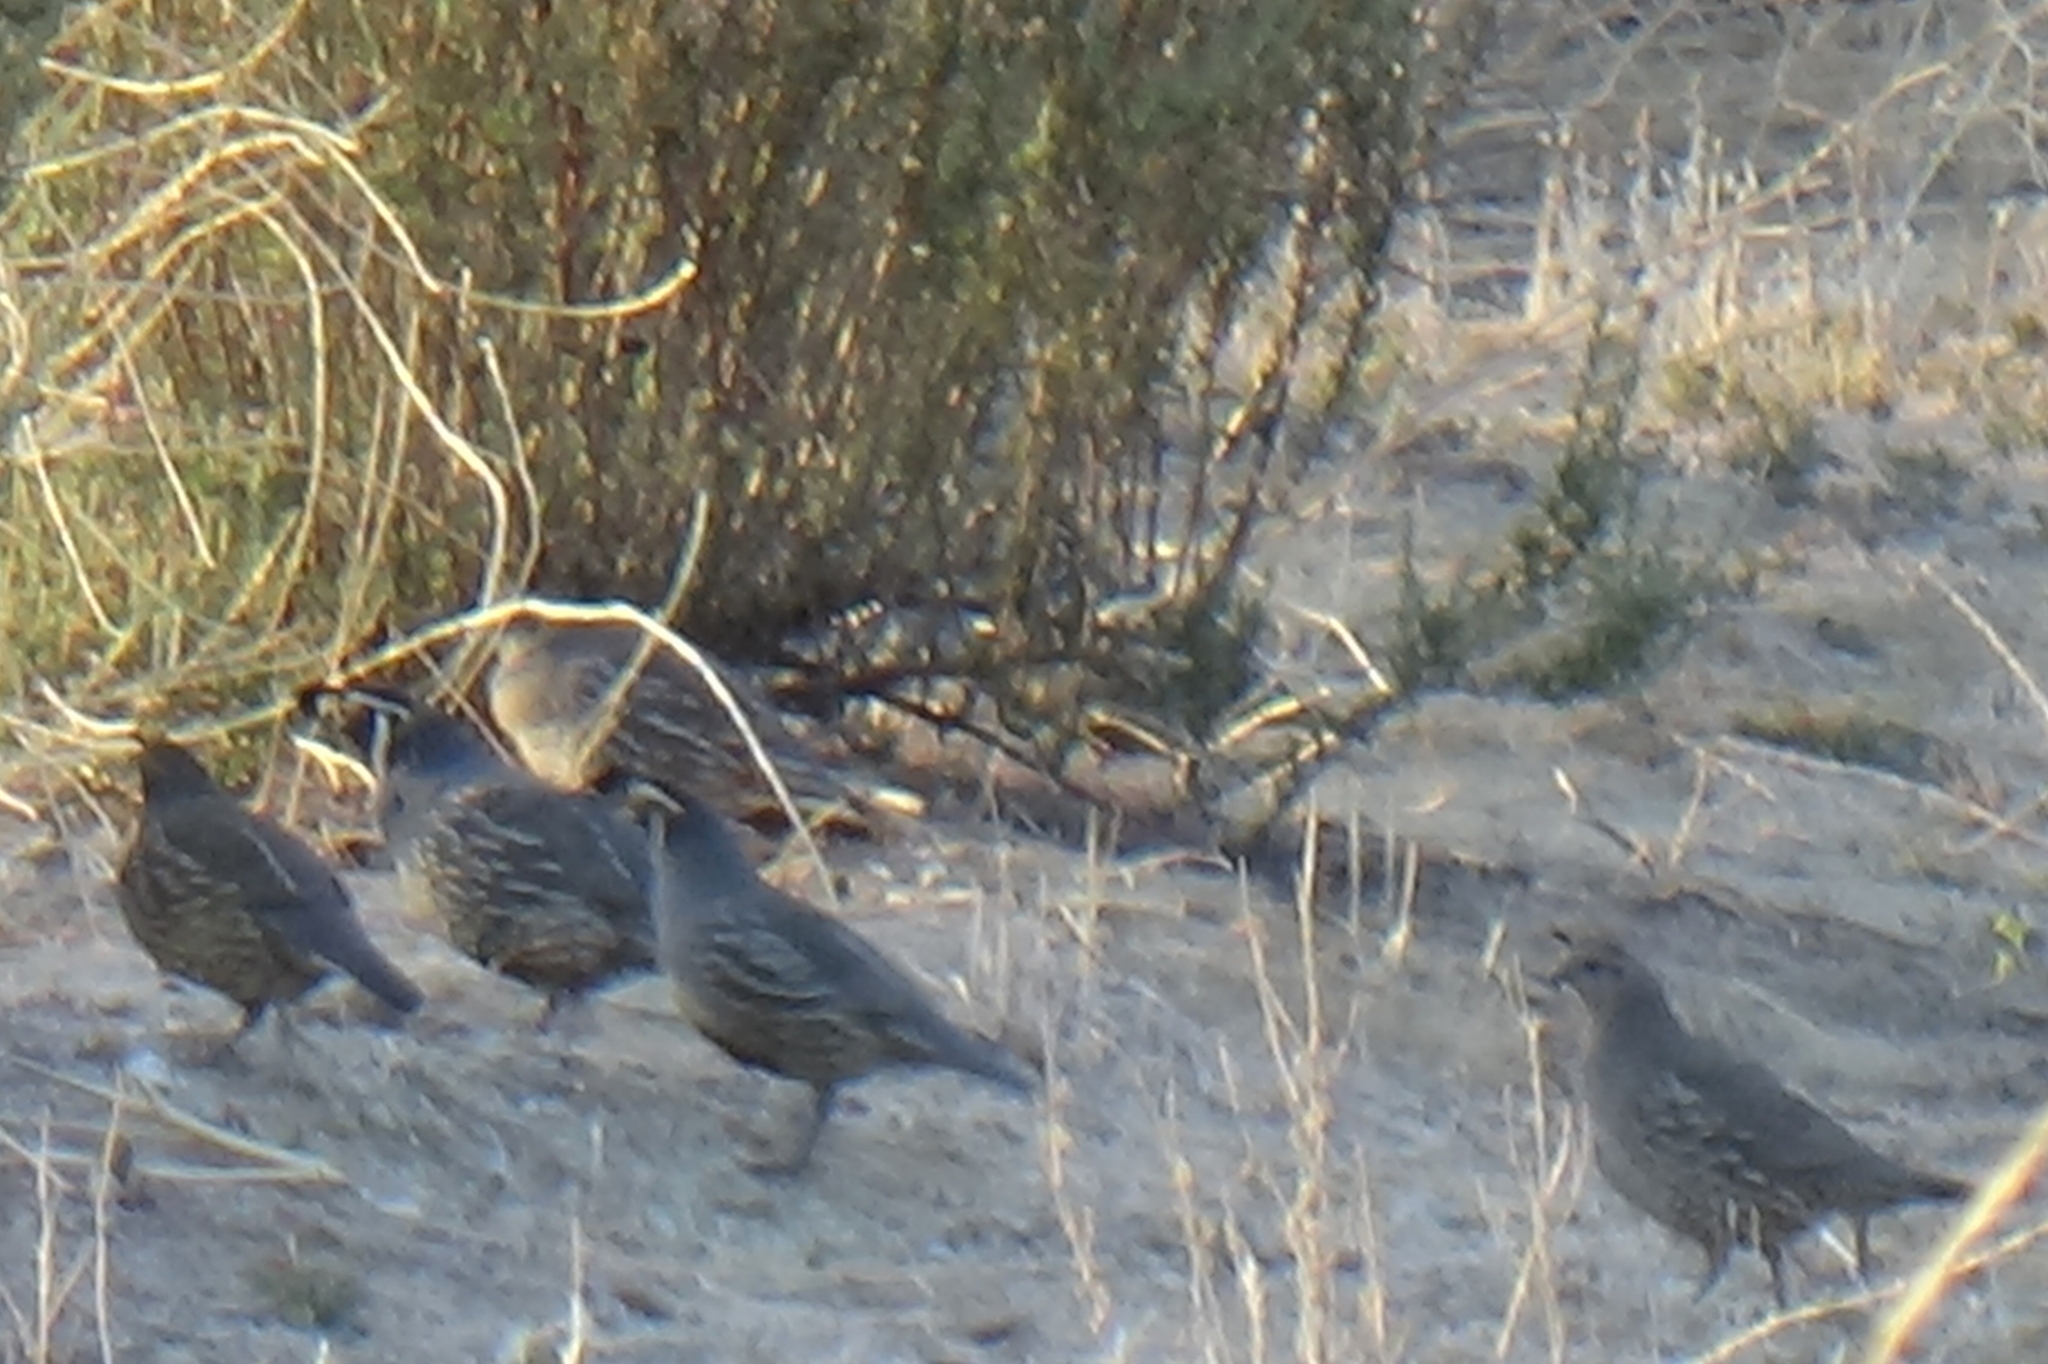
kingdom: Animalia
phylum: Chordata
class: Aves
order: Galliformes
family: Odontophoridae
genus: Callipepla
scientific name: Callipepla californica
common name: California quail
